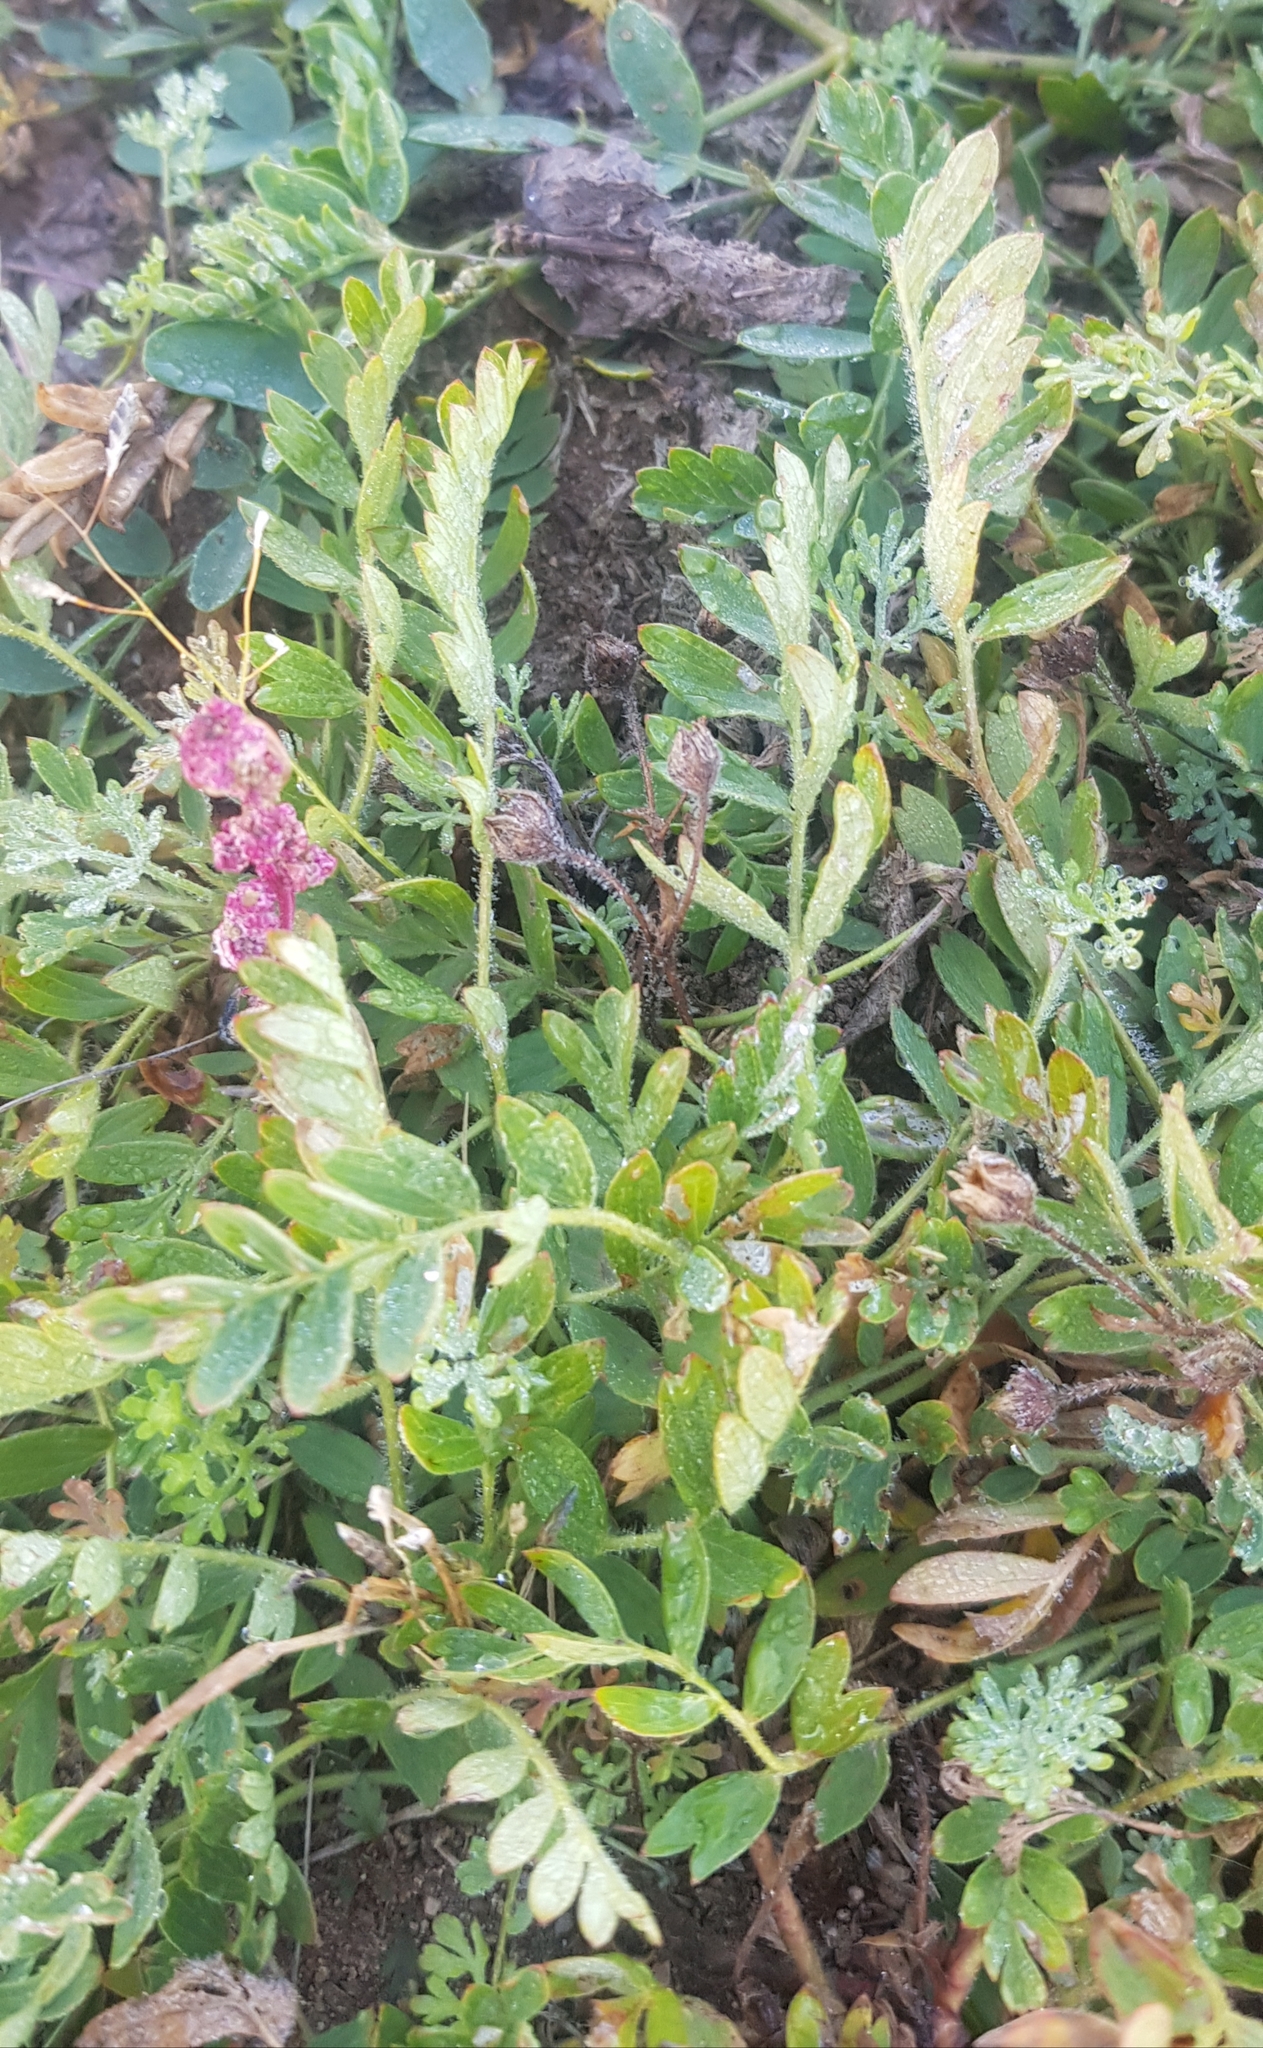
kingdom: Plantae
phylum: Tracheophyta
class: Magnoliopsida
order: Rosales
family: Rosaceae
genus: Sibbaldianthe
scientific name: Sibbaldianthe bifurca
